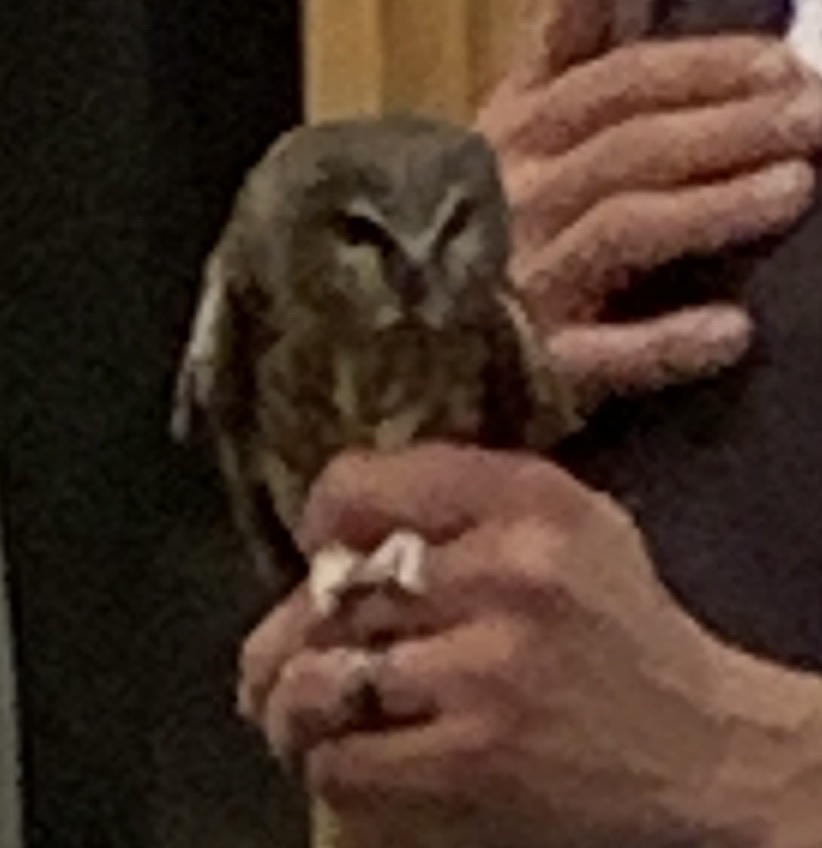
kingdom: Animalia
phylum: Chordata
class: Aves
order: Strigiformes
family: Strigidae
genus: Aegolius
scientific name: Aegolius acadicus
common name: Northern saw-whet owl
